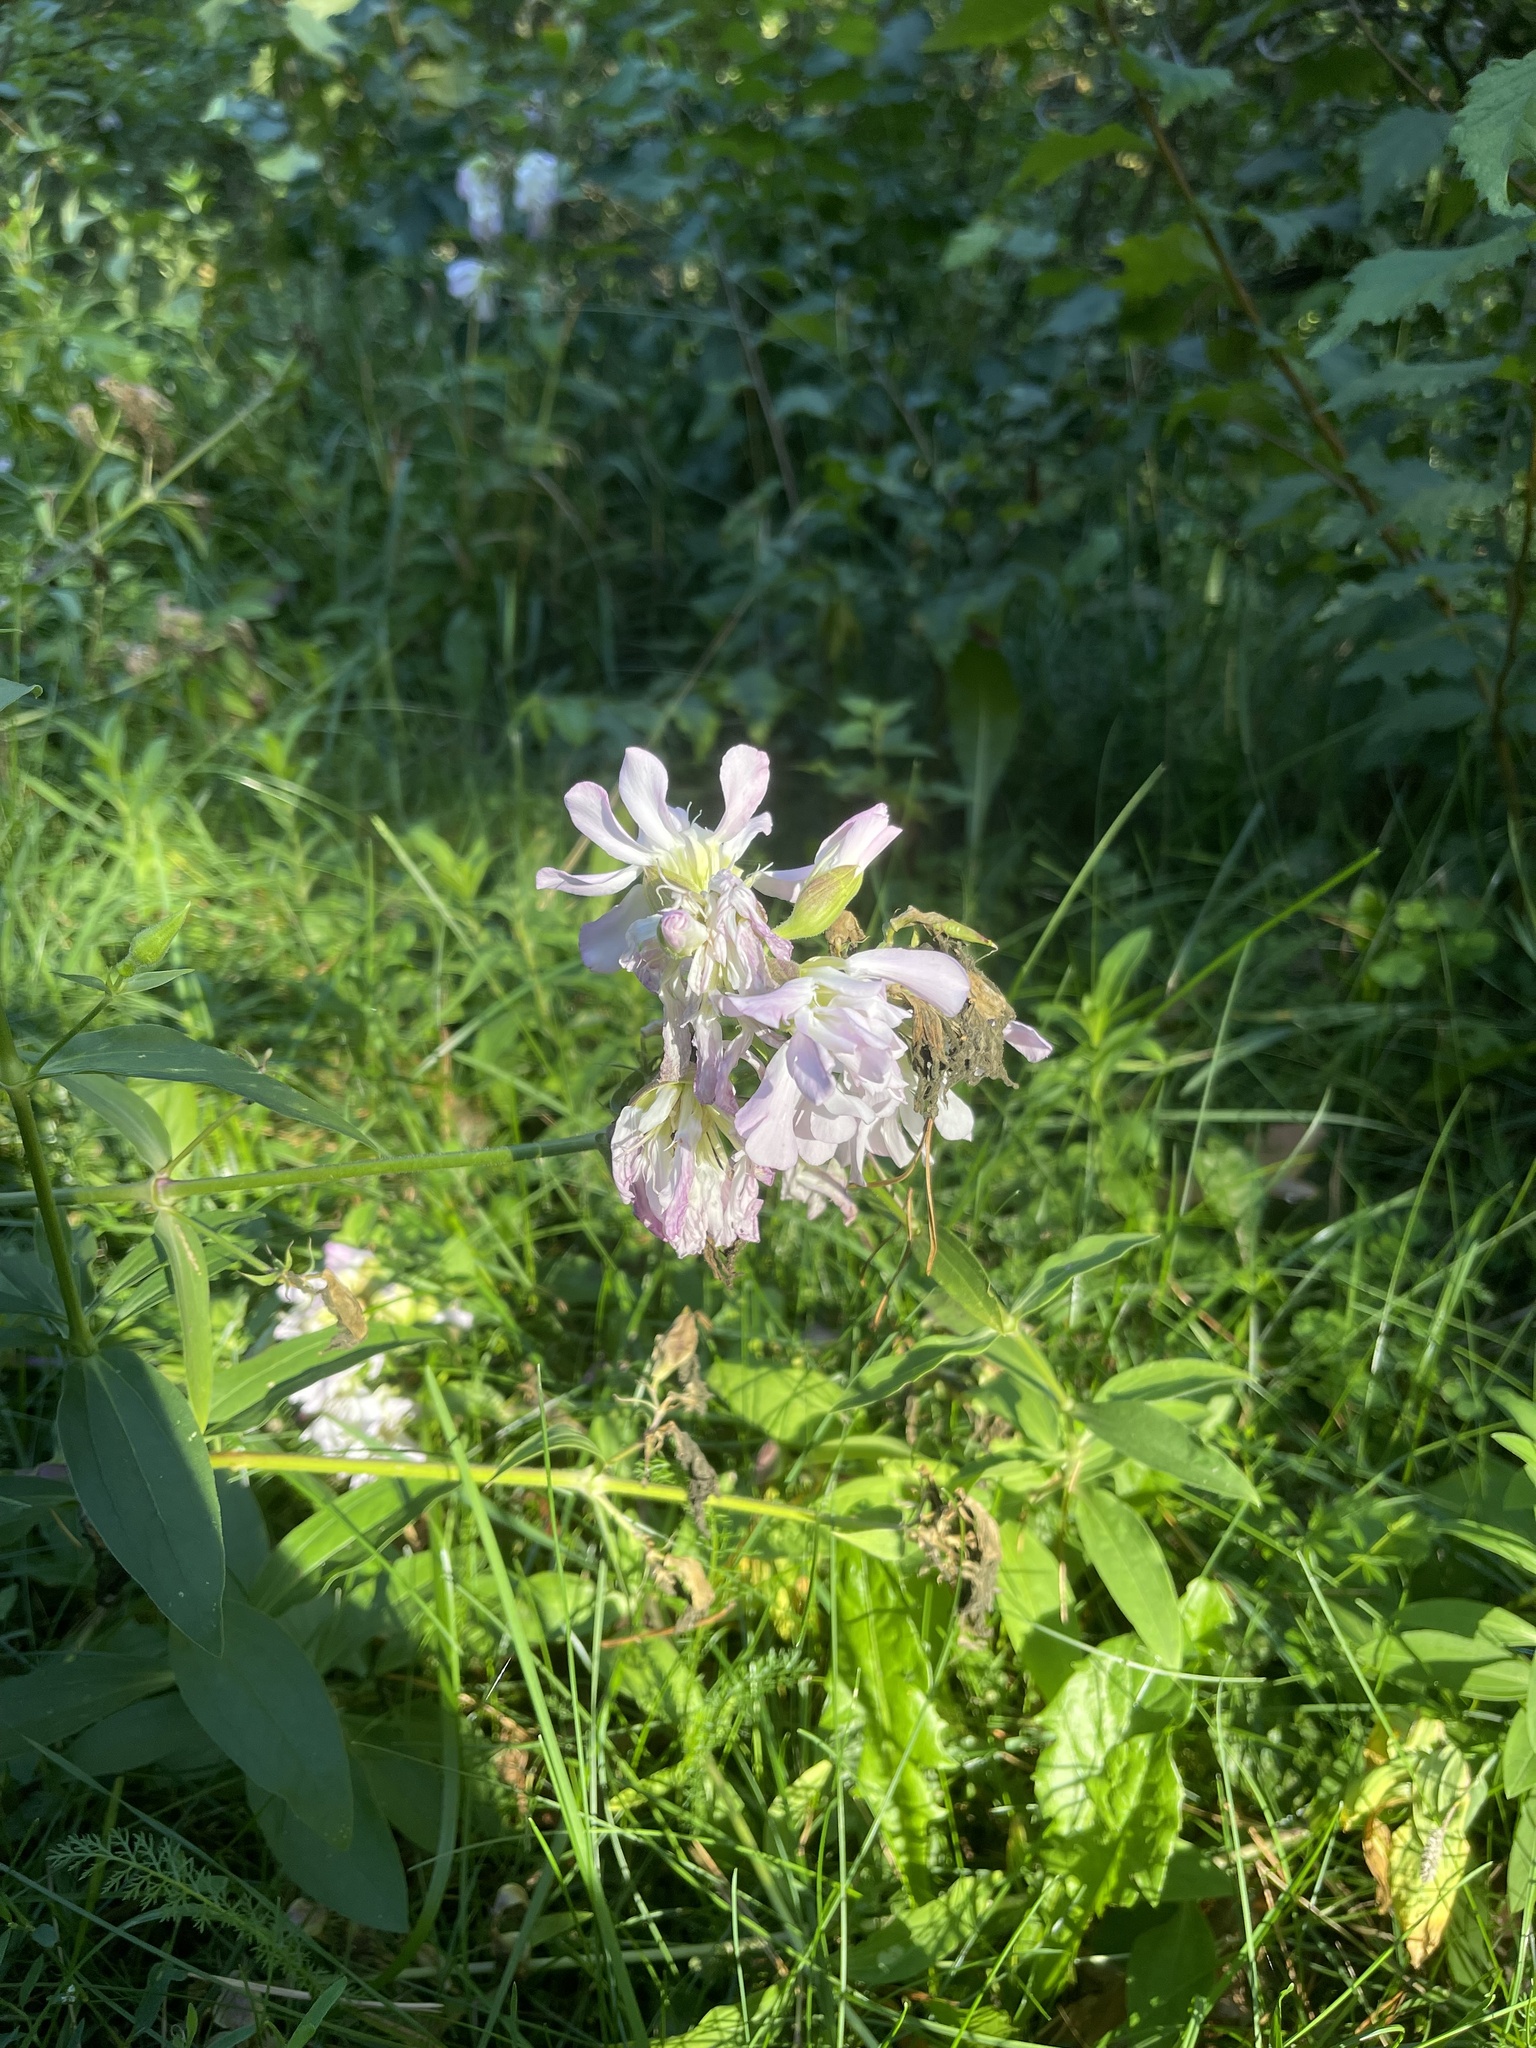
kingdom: Plantae
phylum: Tracheophyta
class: Magnoliopsida
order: Caryophyllales
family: Caryophyllaceae
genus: Saponaria
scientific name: Saponaria officinalis
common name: Soapwort
